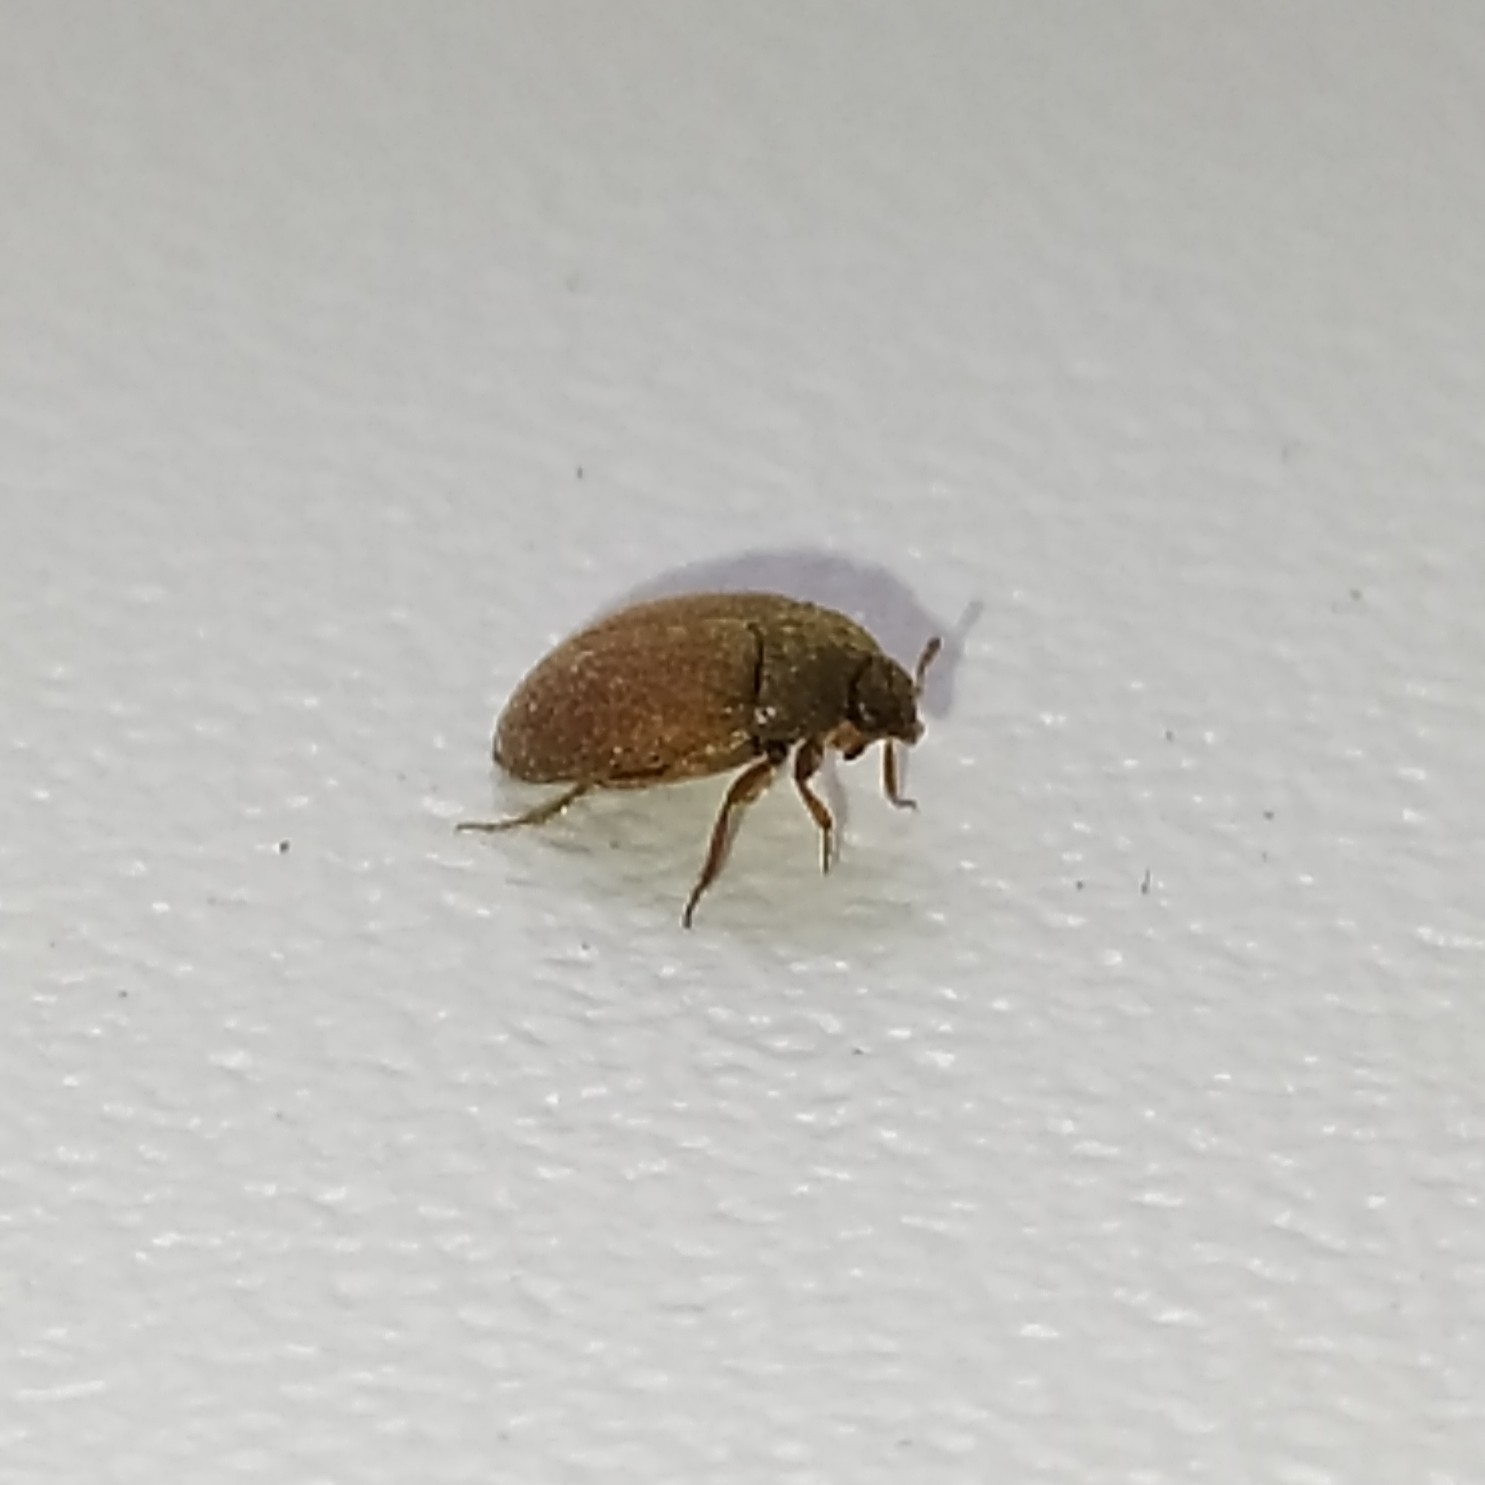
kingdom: Animalia
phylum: Arthropoda
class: Insecta
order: Coleoptera
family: Dermestidae
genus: Attagenus
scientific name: Attagenus smirnovi
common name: Brown carpet beetle
